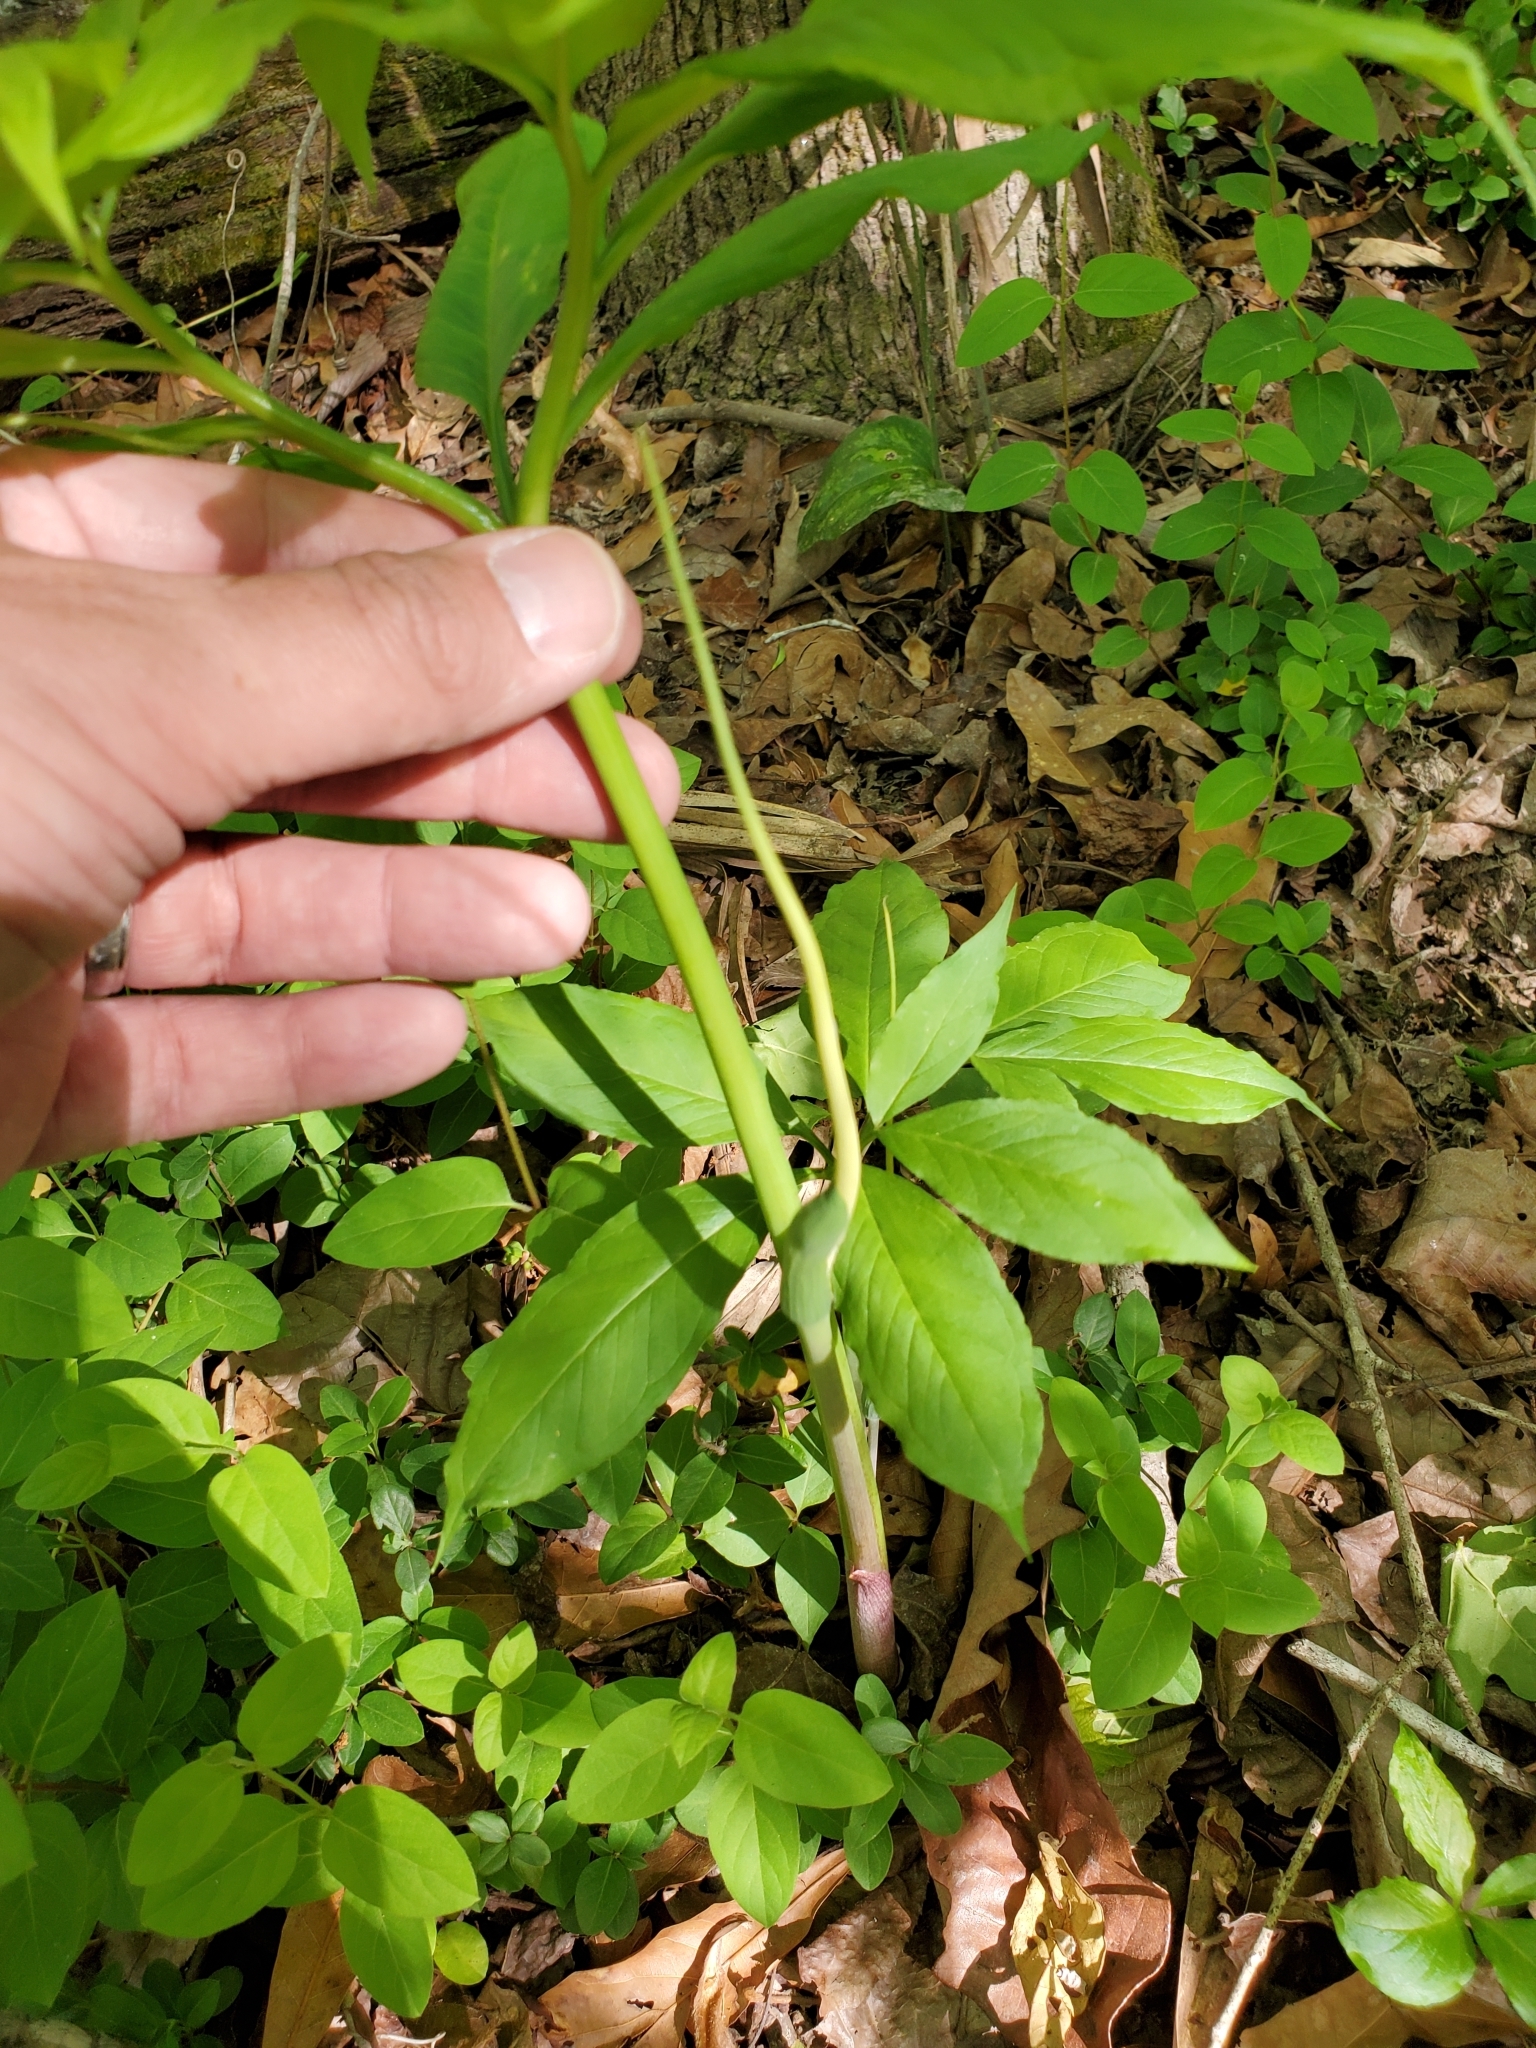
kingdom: Plantae
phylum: Tracheophyta
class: Liliopsida
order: Alismatales
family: Araceae
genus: Arisaema
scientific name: Arisaema dracontium
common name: Dragon-arum
